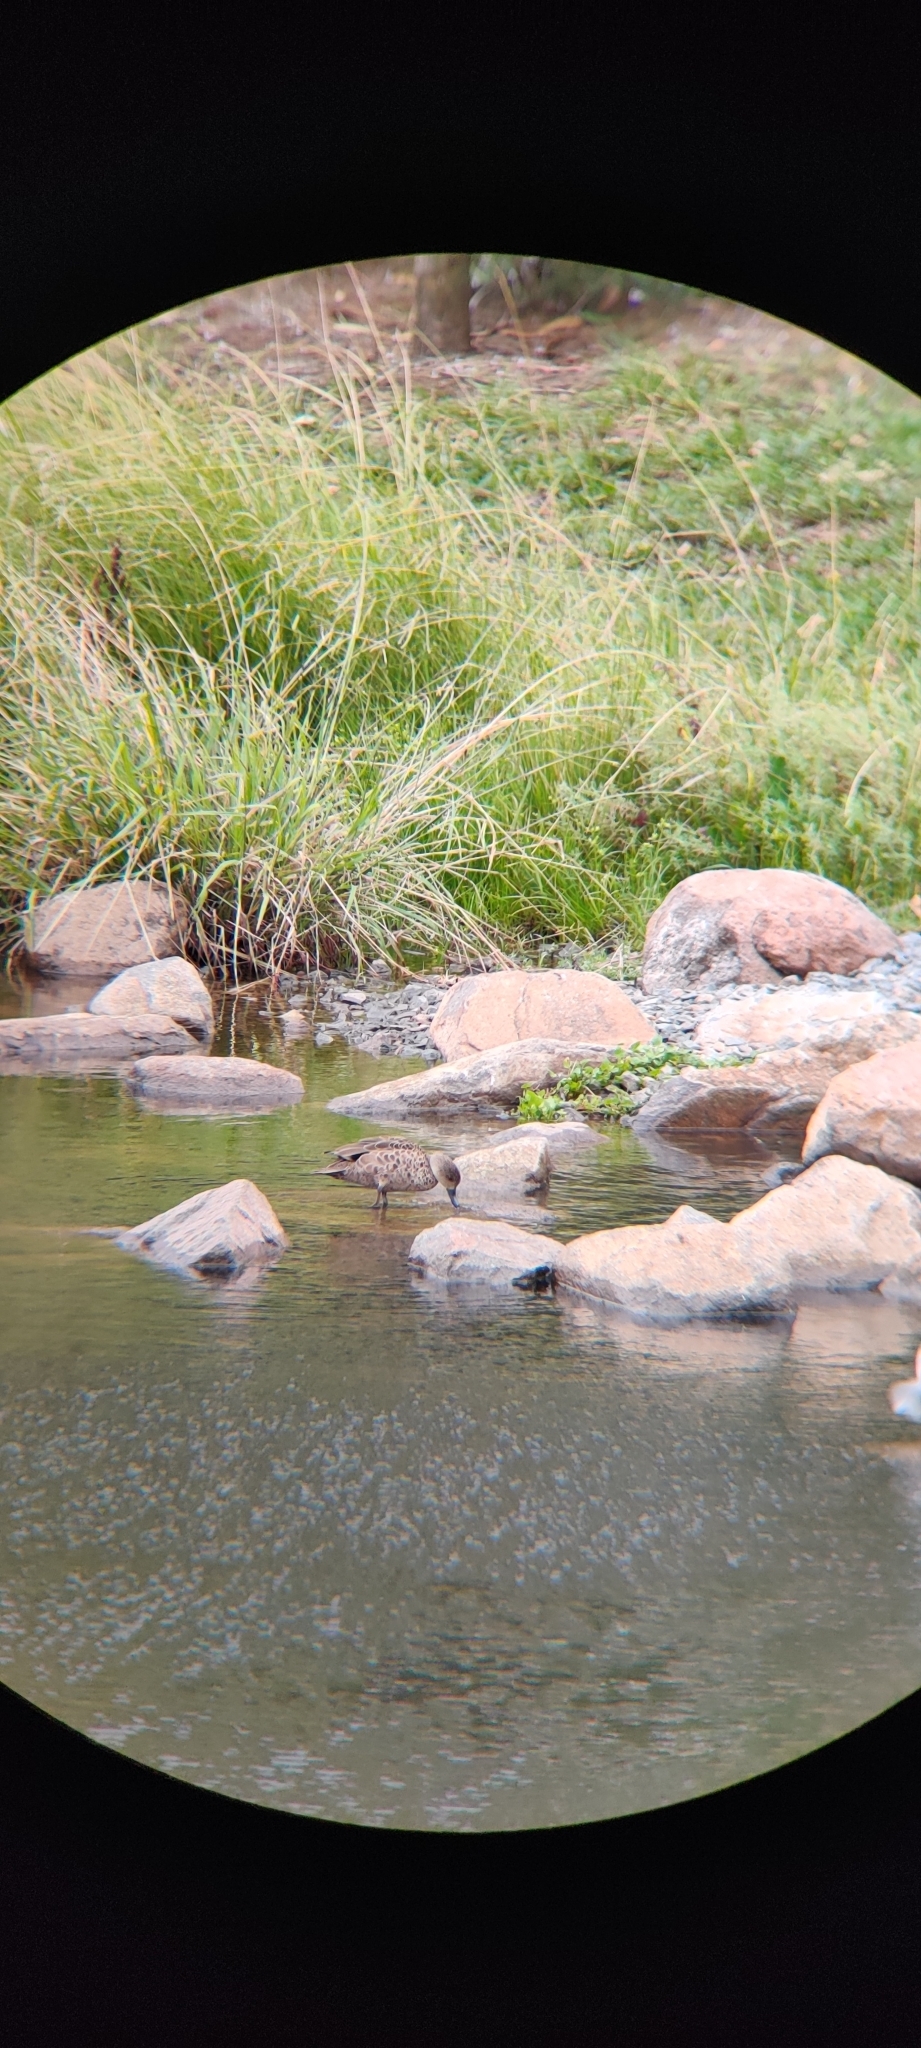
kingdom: Animalia
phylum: Chordata
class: Aves
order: Anseriformes
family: Anatidae
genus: Anas
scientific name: Anas gracilis
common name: Grey teal
